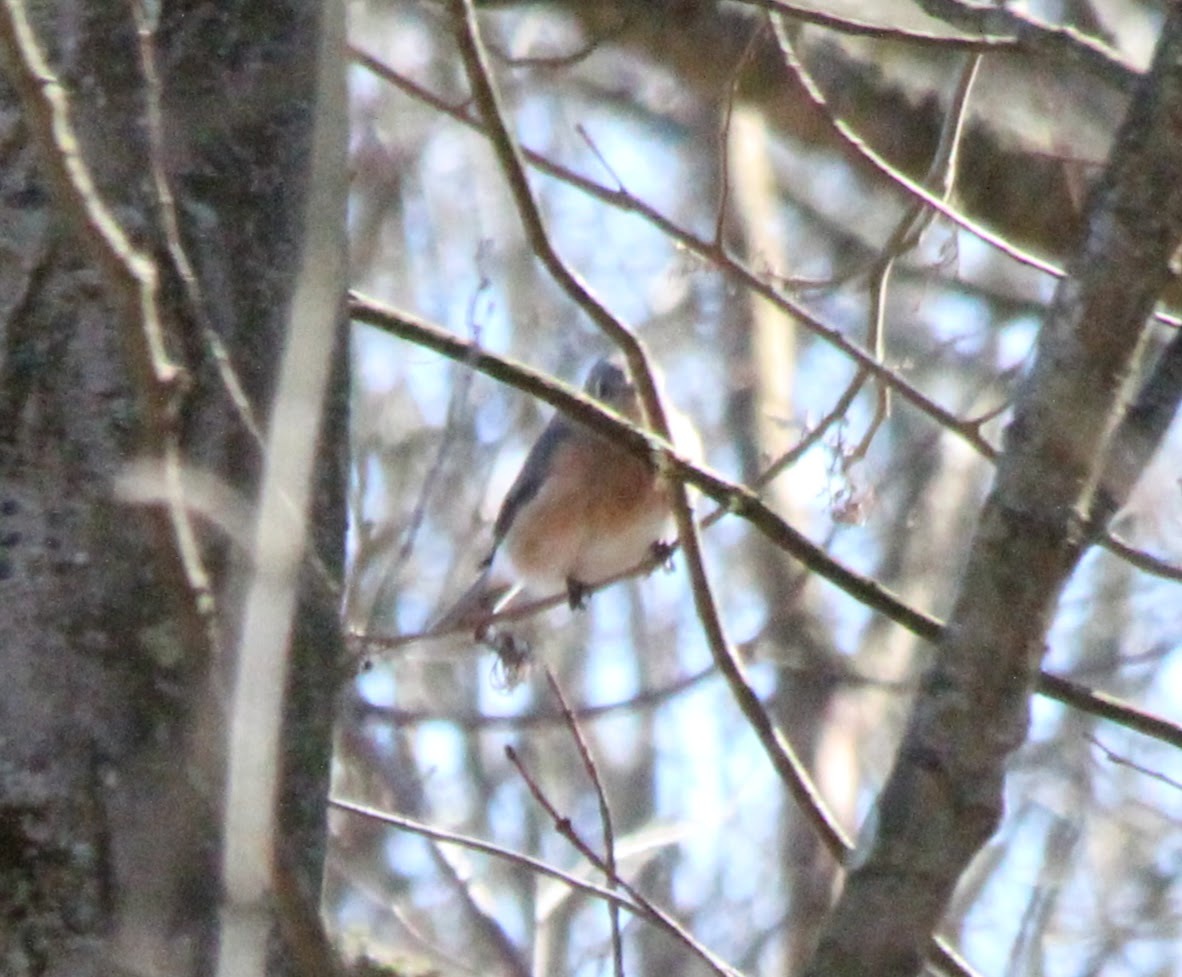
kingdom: Animalia
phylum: Chordata
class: Aves
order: Passeriformes
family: Turdidae
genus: Sialia
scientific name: Sialia sialis
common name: Eastern bluebird
